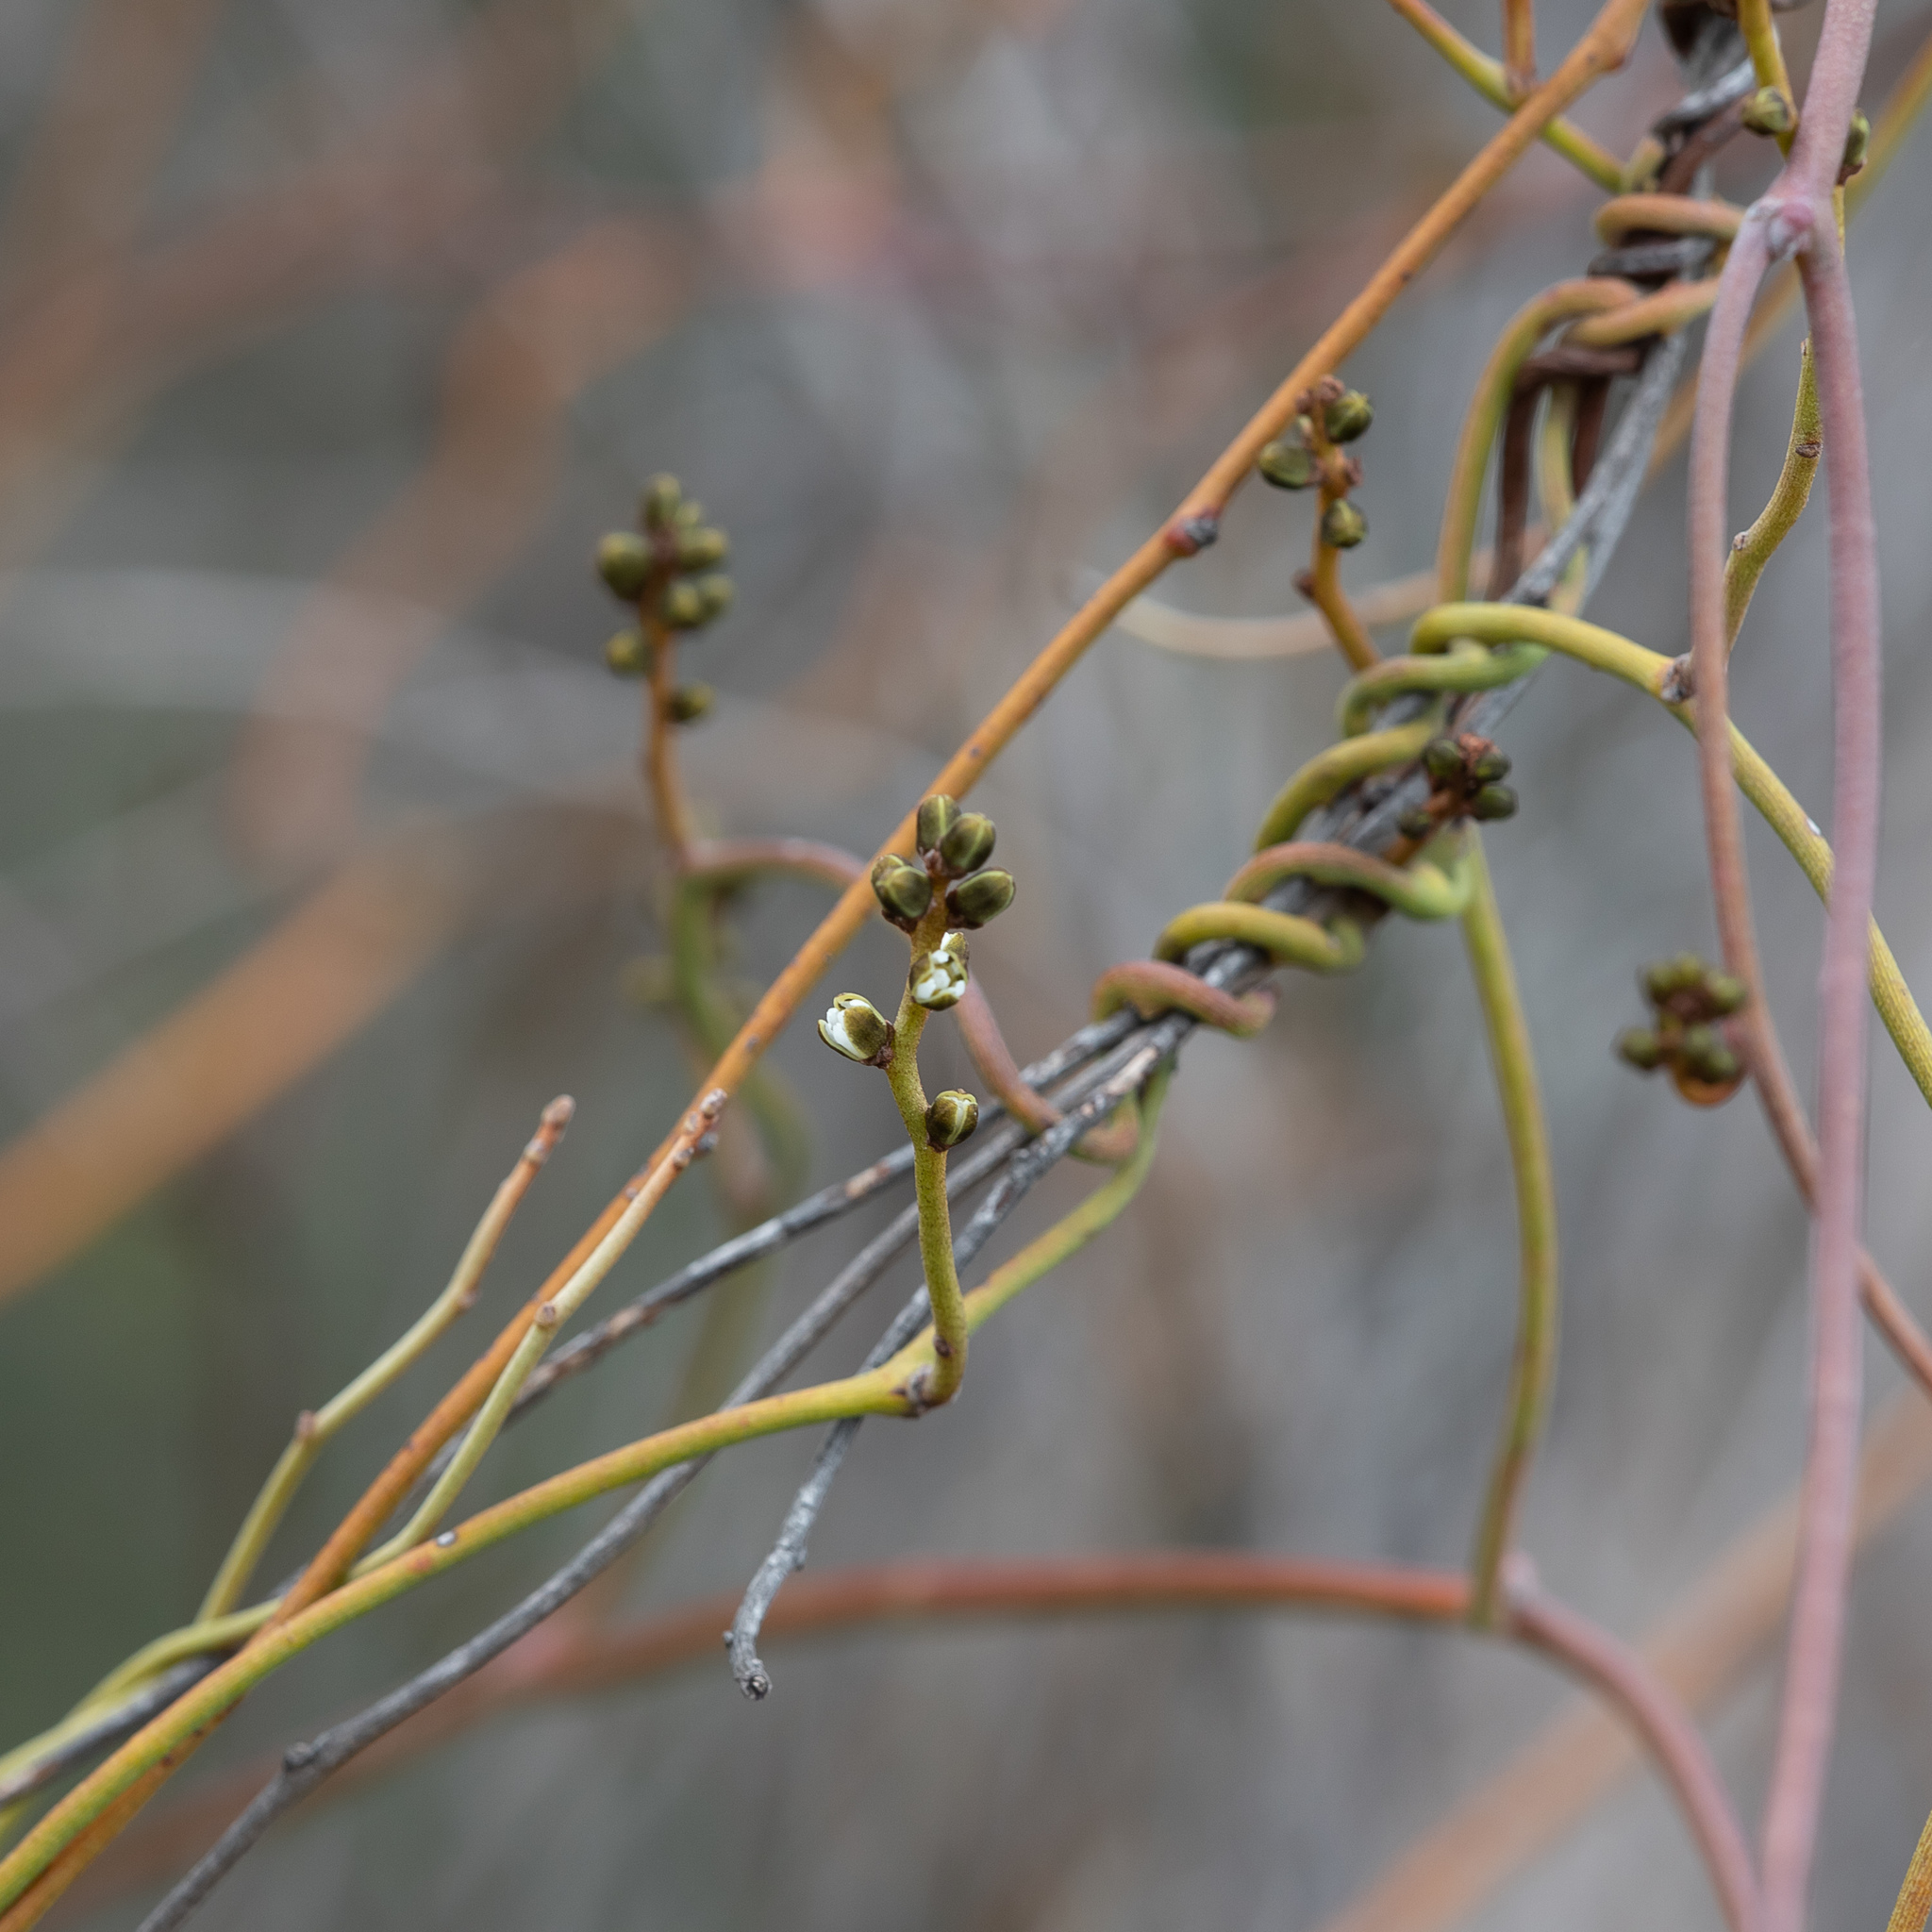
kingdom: Plantae
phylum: Tracheophyta
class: Magnoliopsida
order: Laurales
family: Lauraceae
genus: Cassytha
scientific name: Cassytha melantha
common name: Mallee stranglevine
